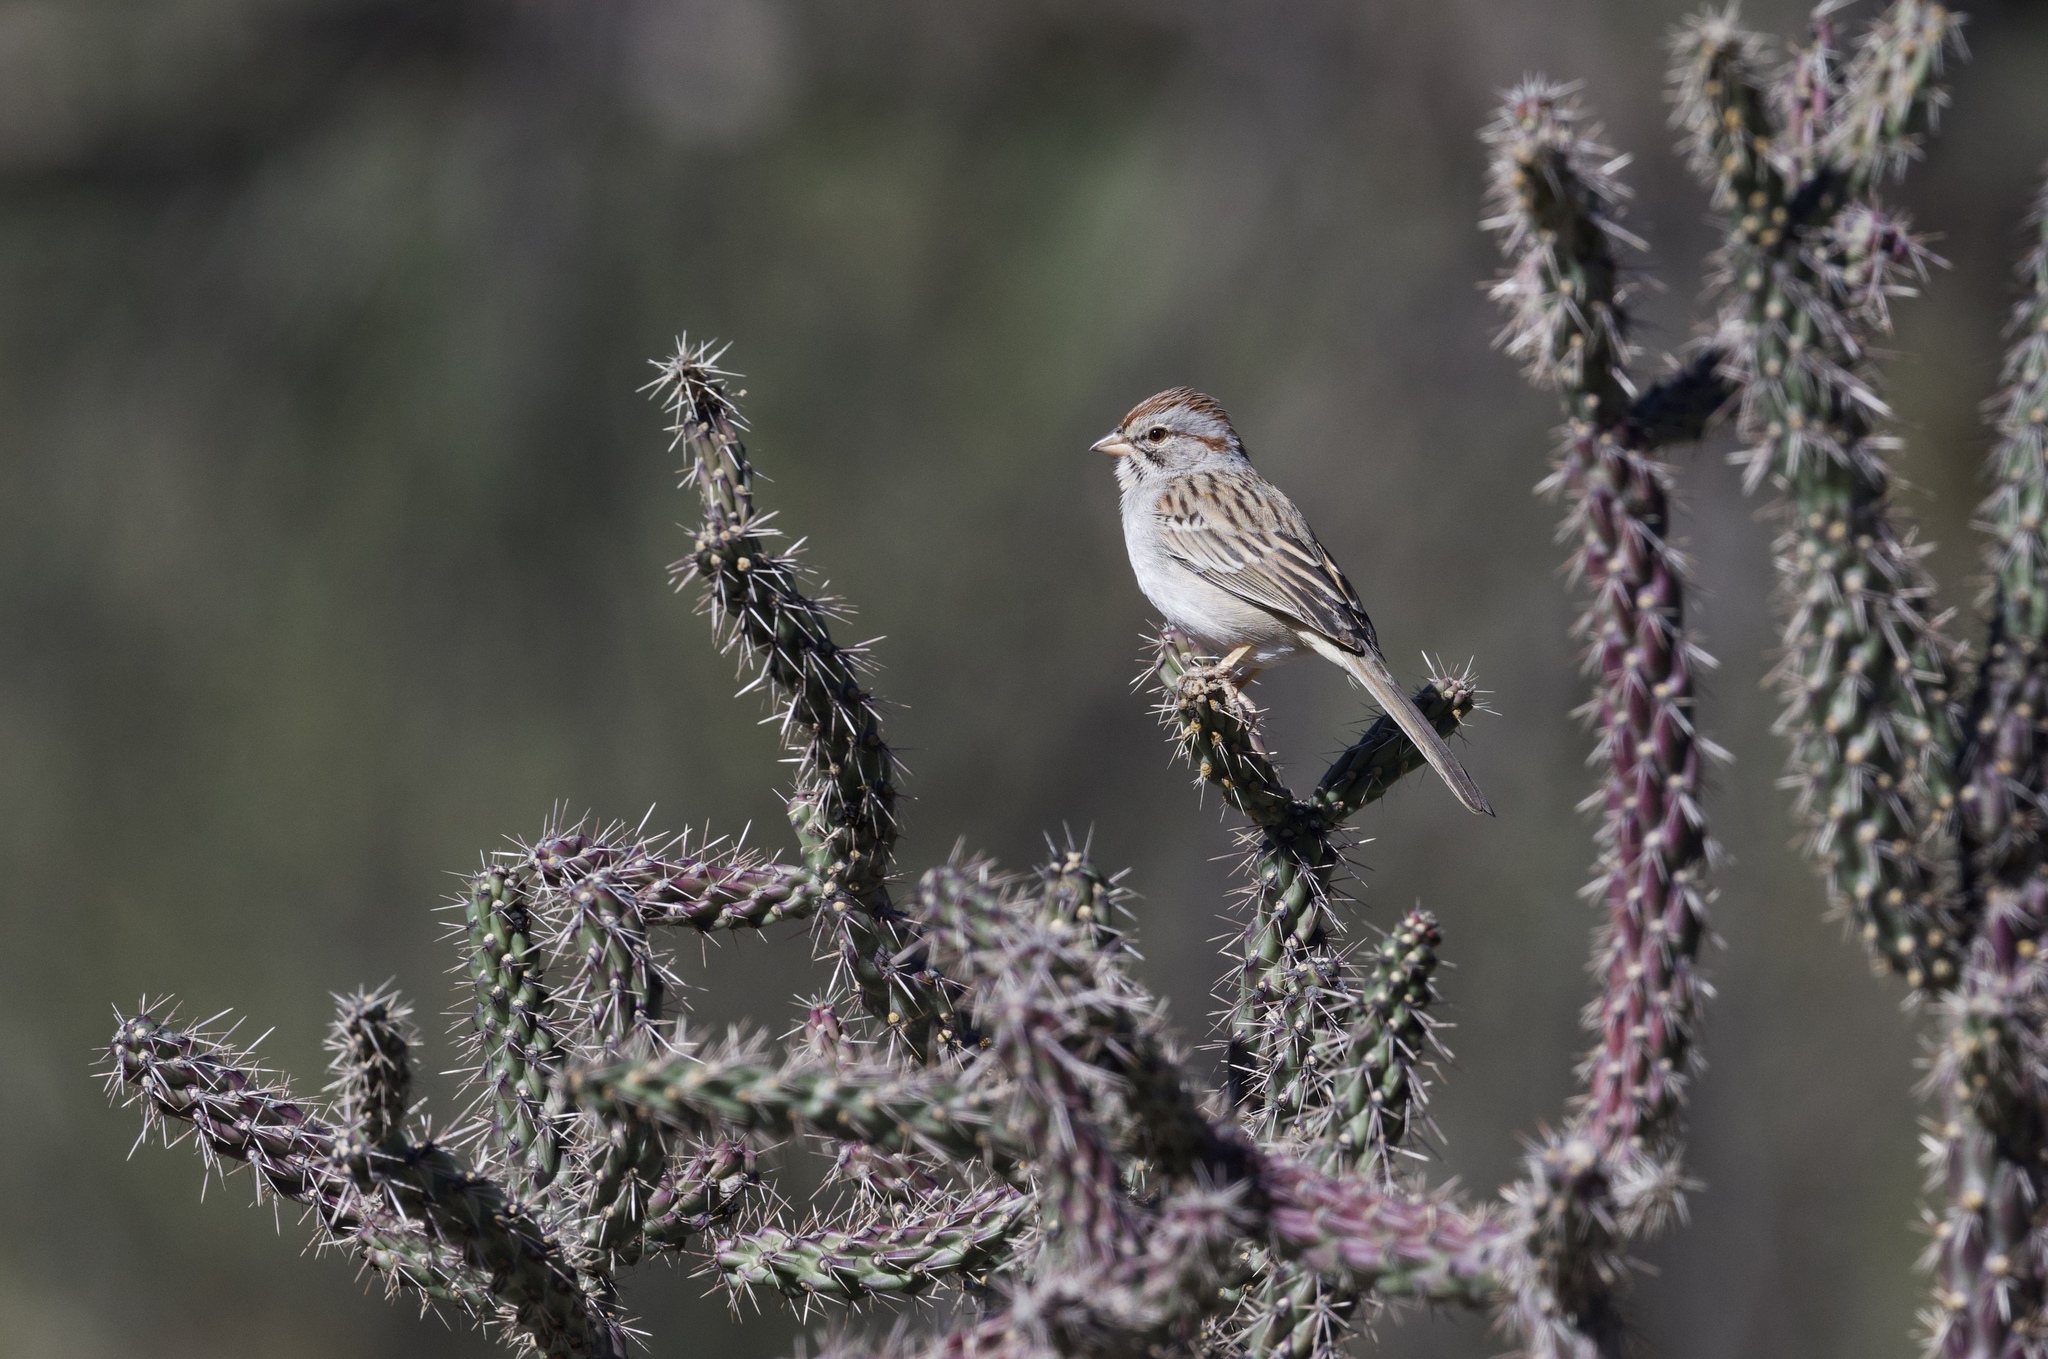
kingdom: Animalia
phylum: Chordata
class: Aves
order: Passeriformes
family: Passerellidae
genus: Peucaea
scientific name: Peucaea carpalis
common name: Rufous-winged sparrow
